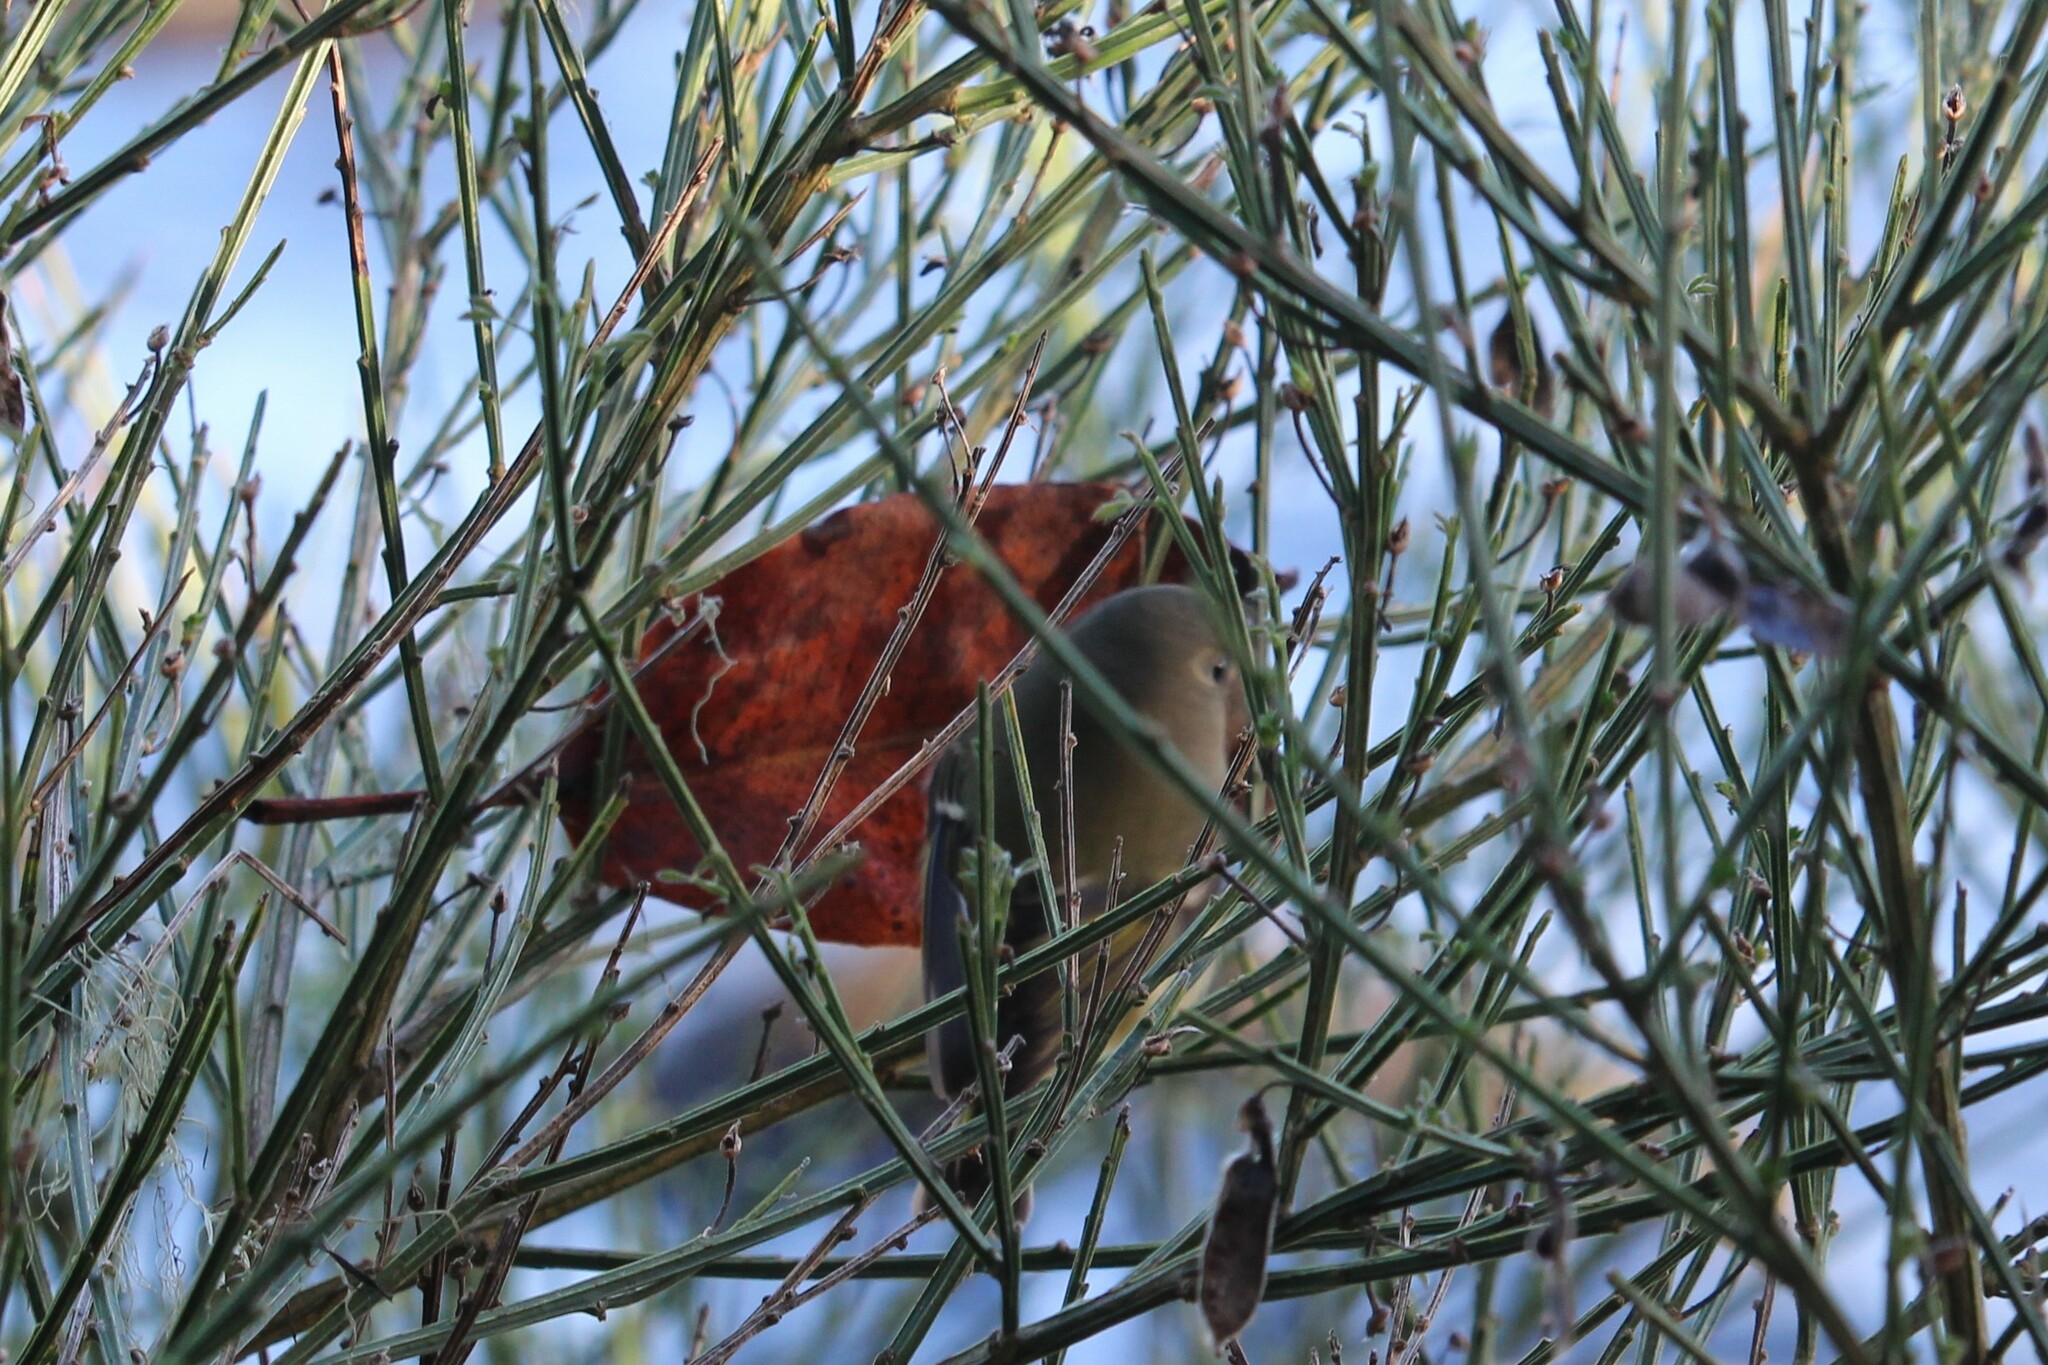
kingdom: Animalia
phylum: Chordata
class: Aves
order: Passeriformes
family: Regulidae
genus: Regulus
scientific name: Regulus calendula
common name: Ruby-crowned kinglet
